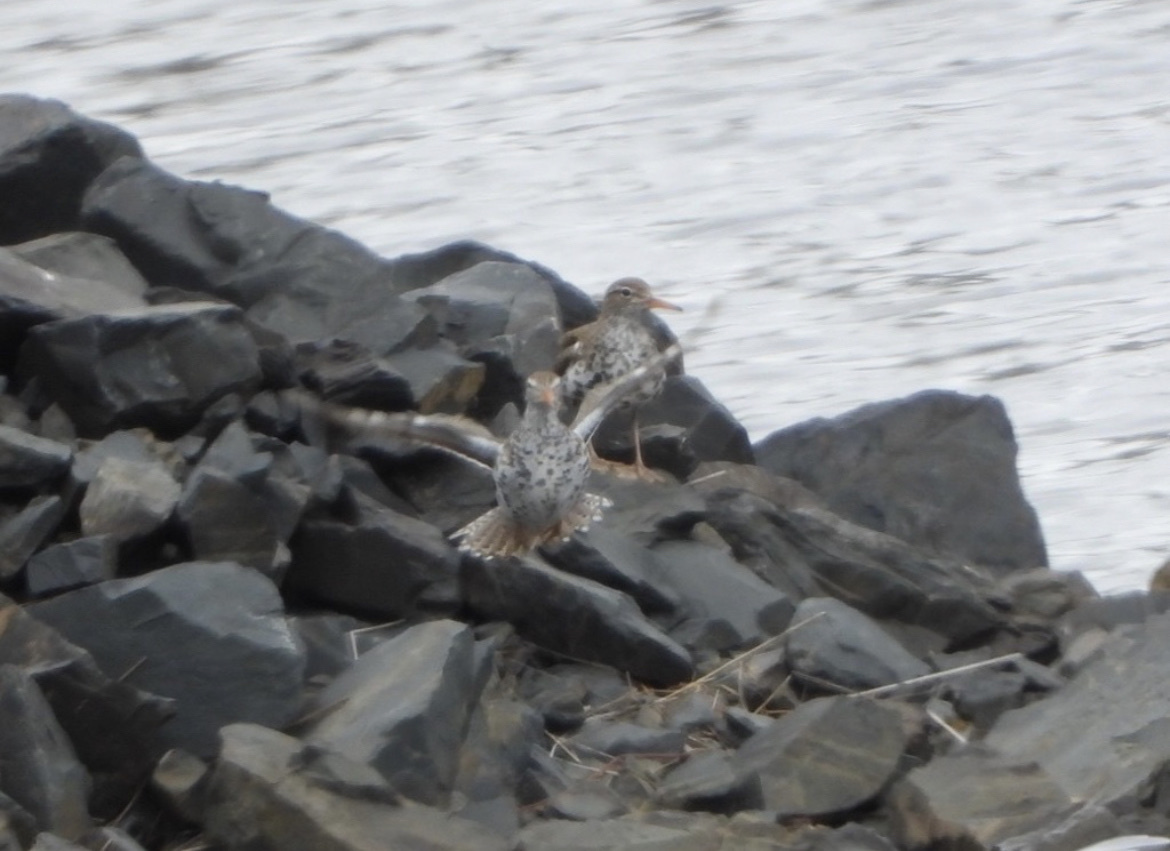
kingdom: Animalia
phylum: Chordata
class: Aves
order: Charadriiformes
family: Scolopacidae
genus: Actitis
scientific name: Actitis macularius
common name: Spotted sandpiper
